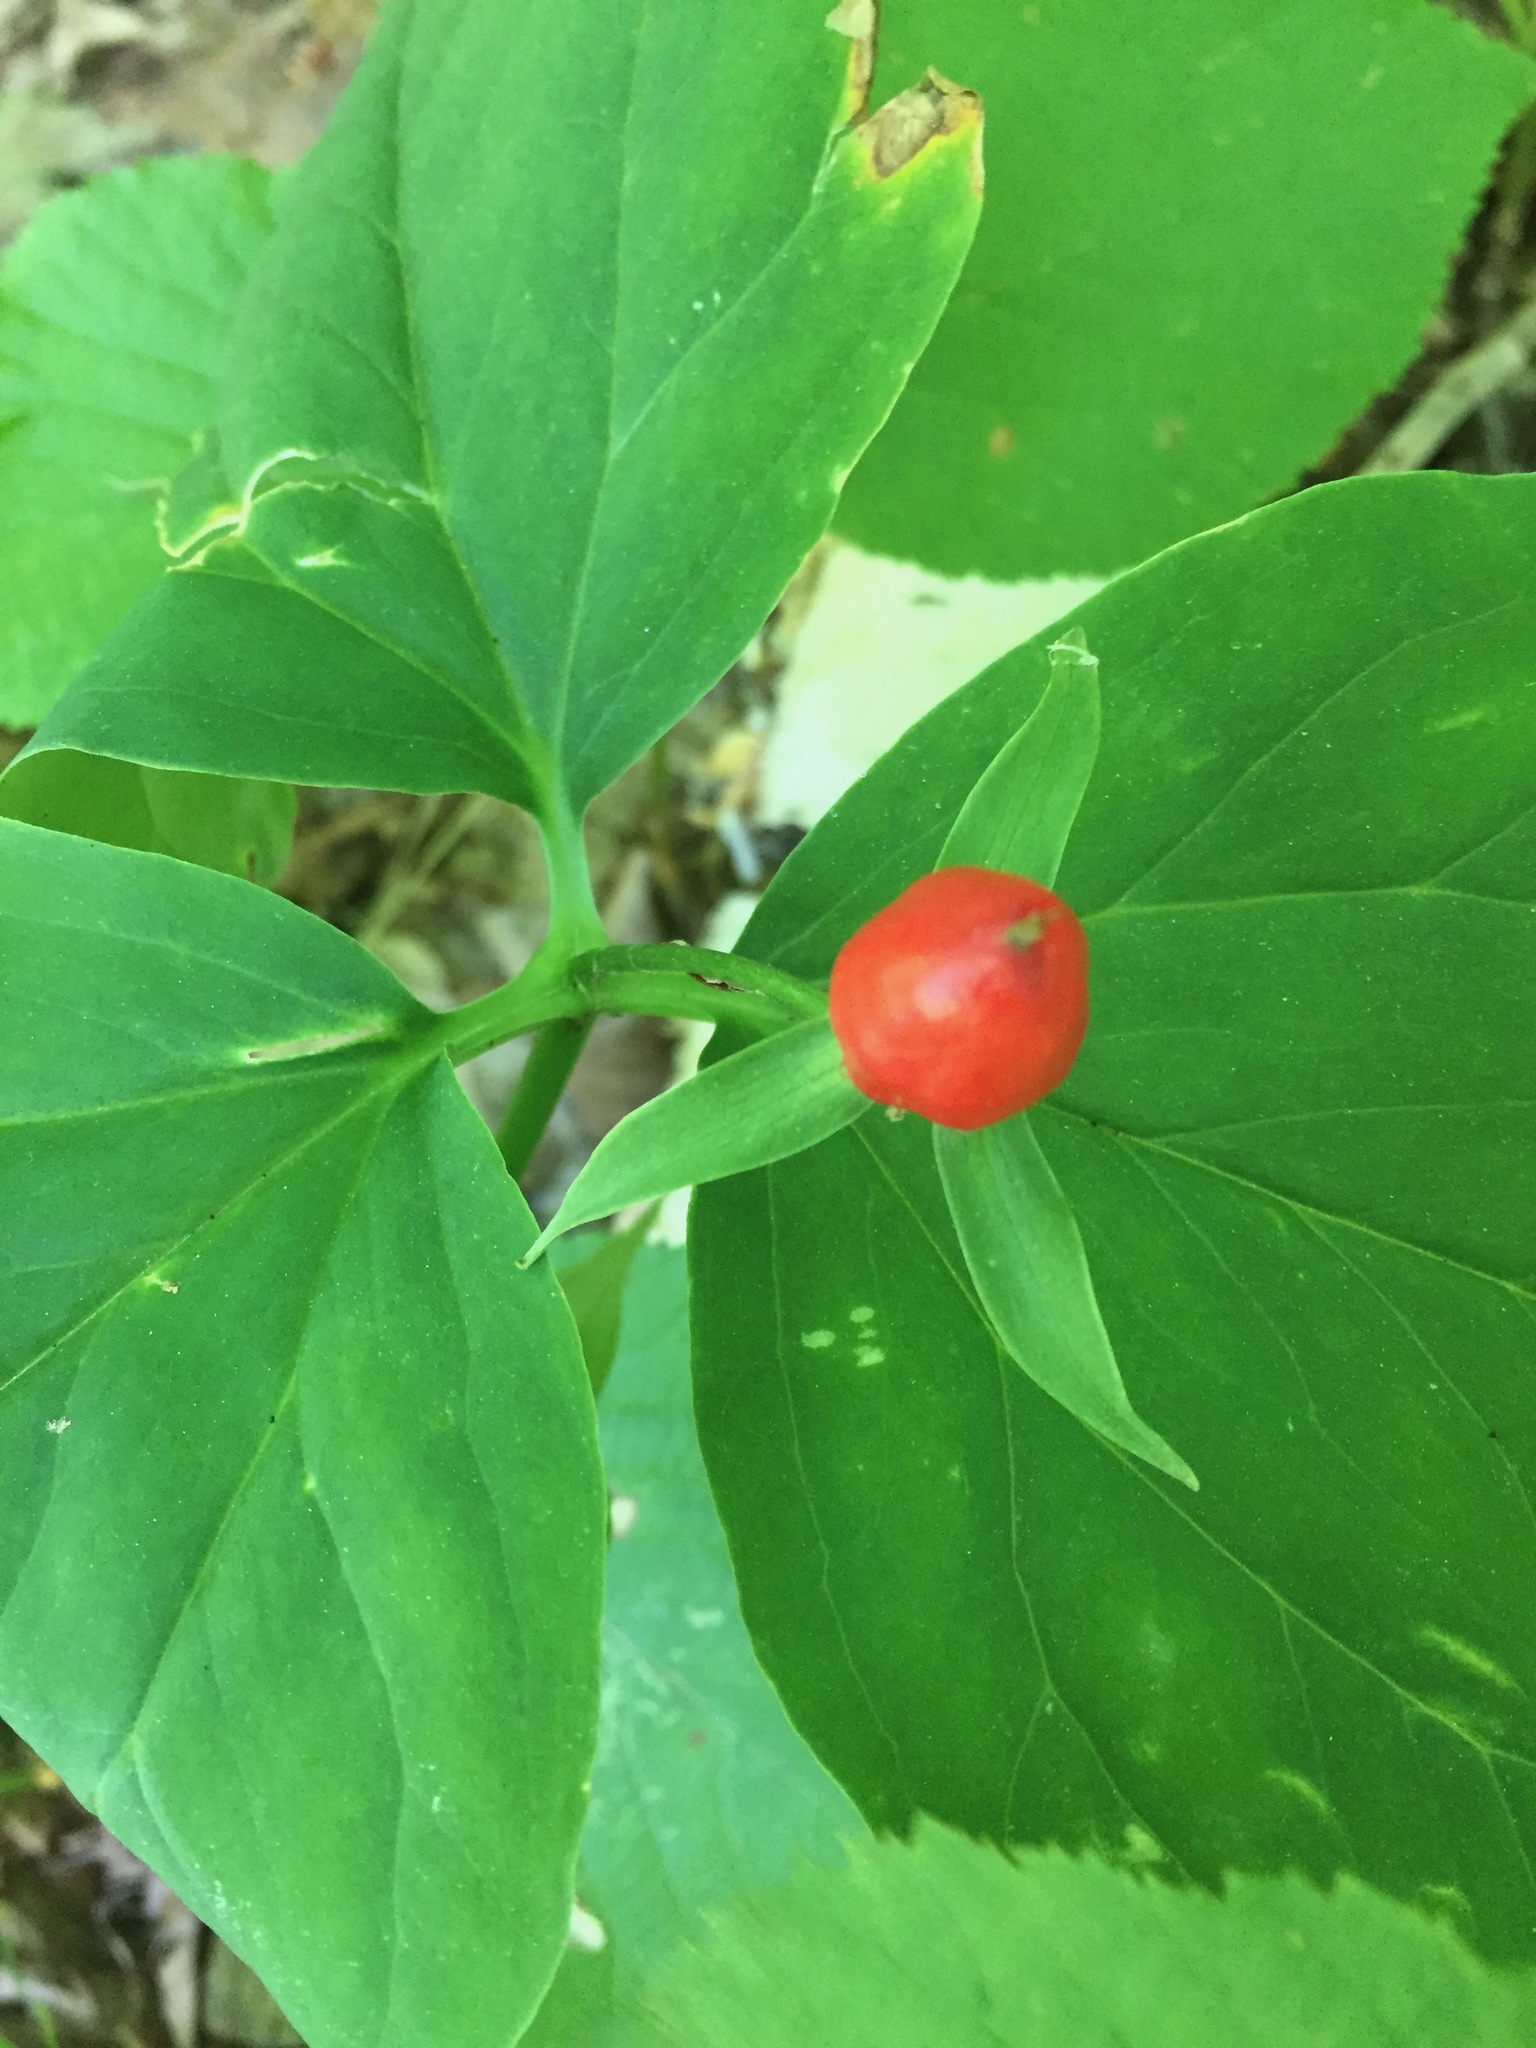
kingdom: Plantae
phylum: Tracheophyta
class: Liliopsida
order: Liliales
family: Melanthiaceae
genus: Trillium
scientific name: Trillium undulatum
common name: Paint trillium
